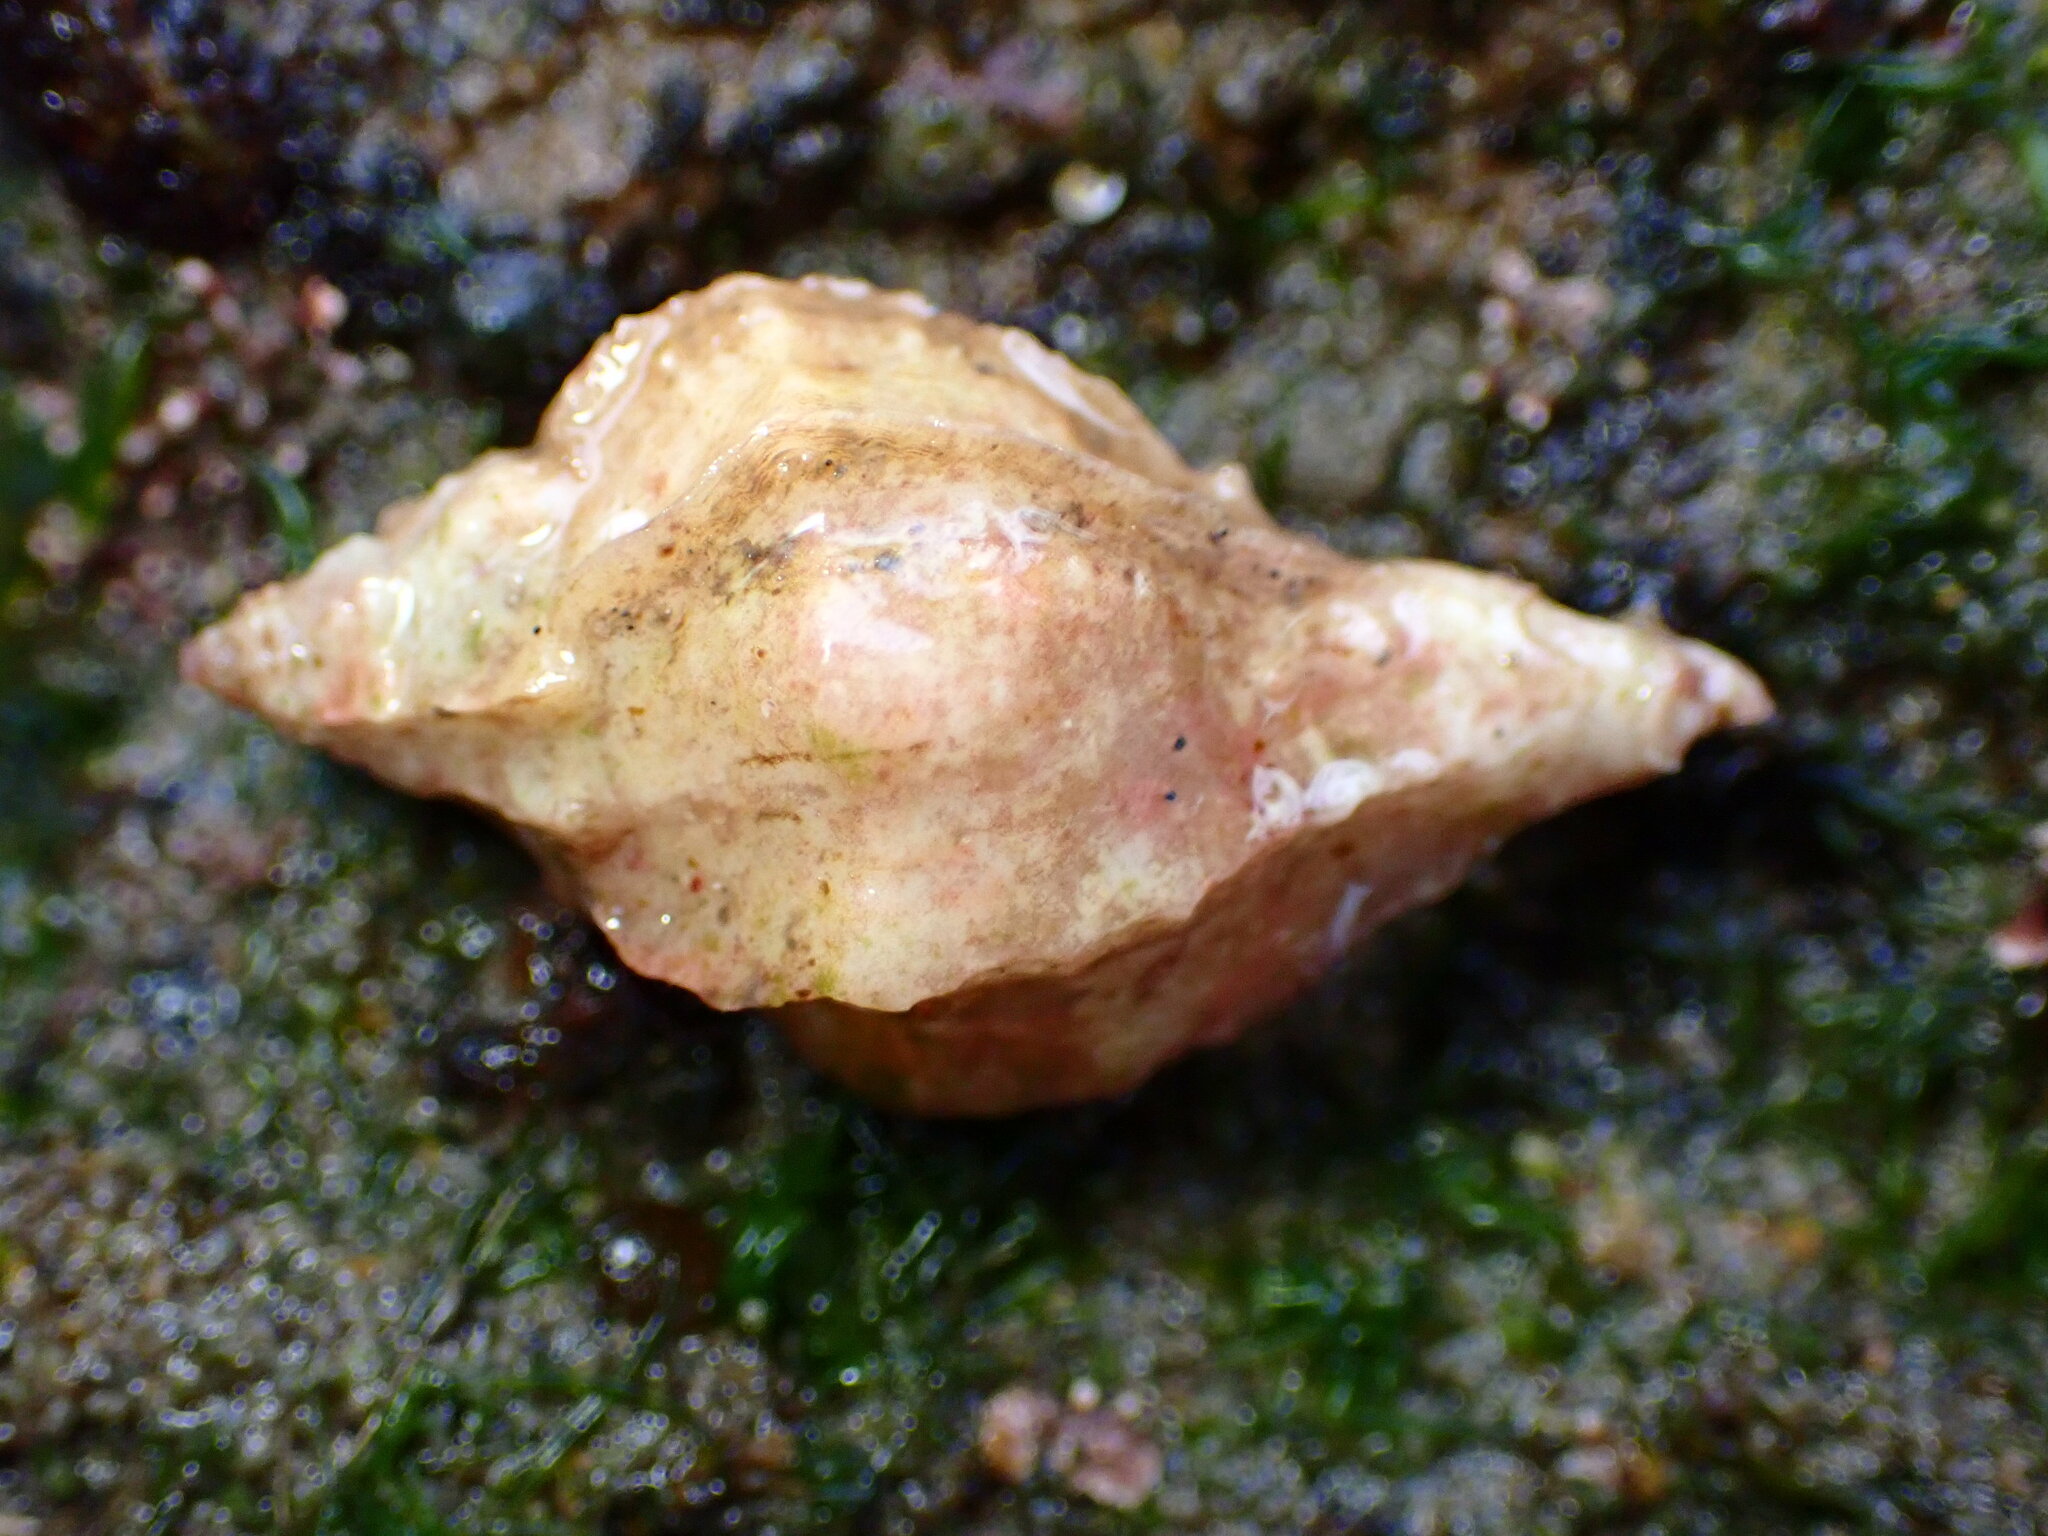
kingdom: Animalia
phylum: Mollusca
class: Gastropoda
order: Neogastropoda
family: Muricidae
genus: Ceratostoma
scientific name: Ceratostoma nuttalli
